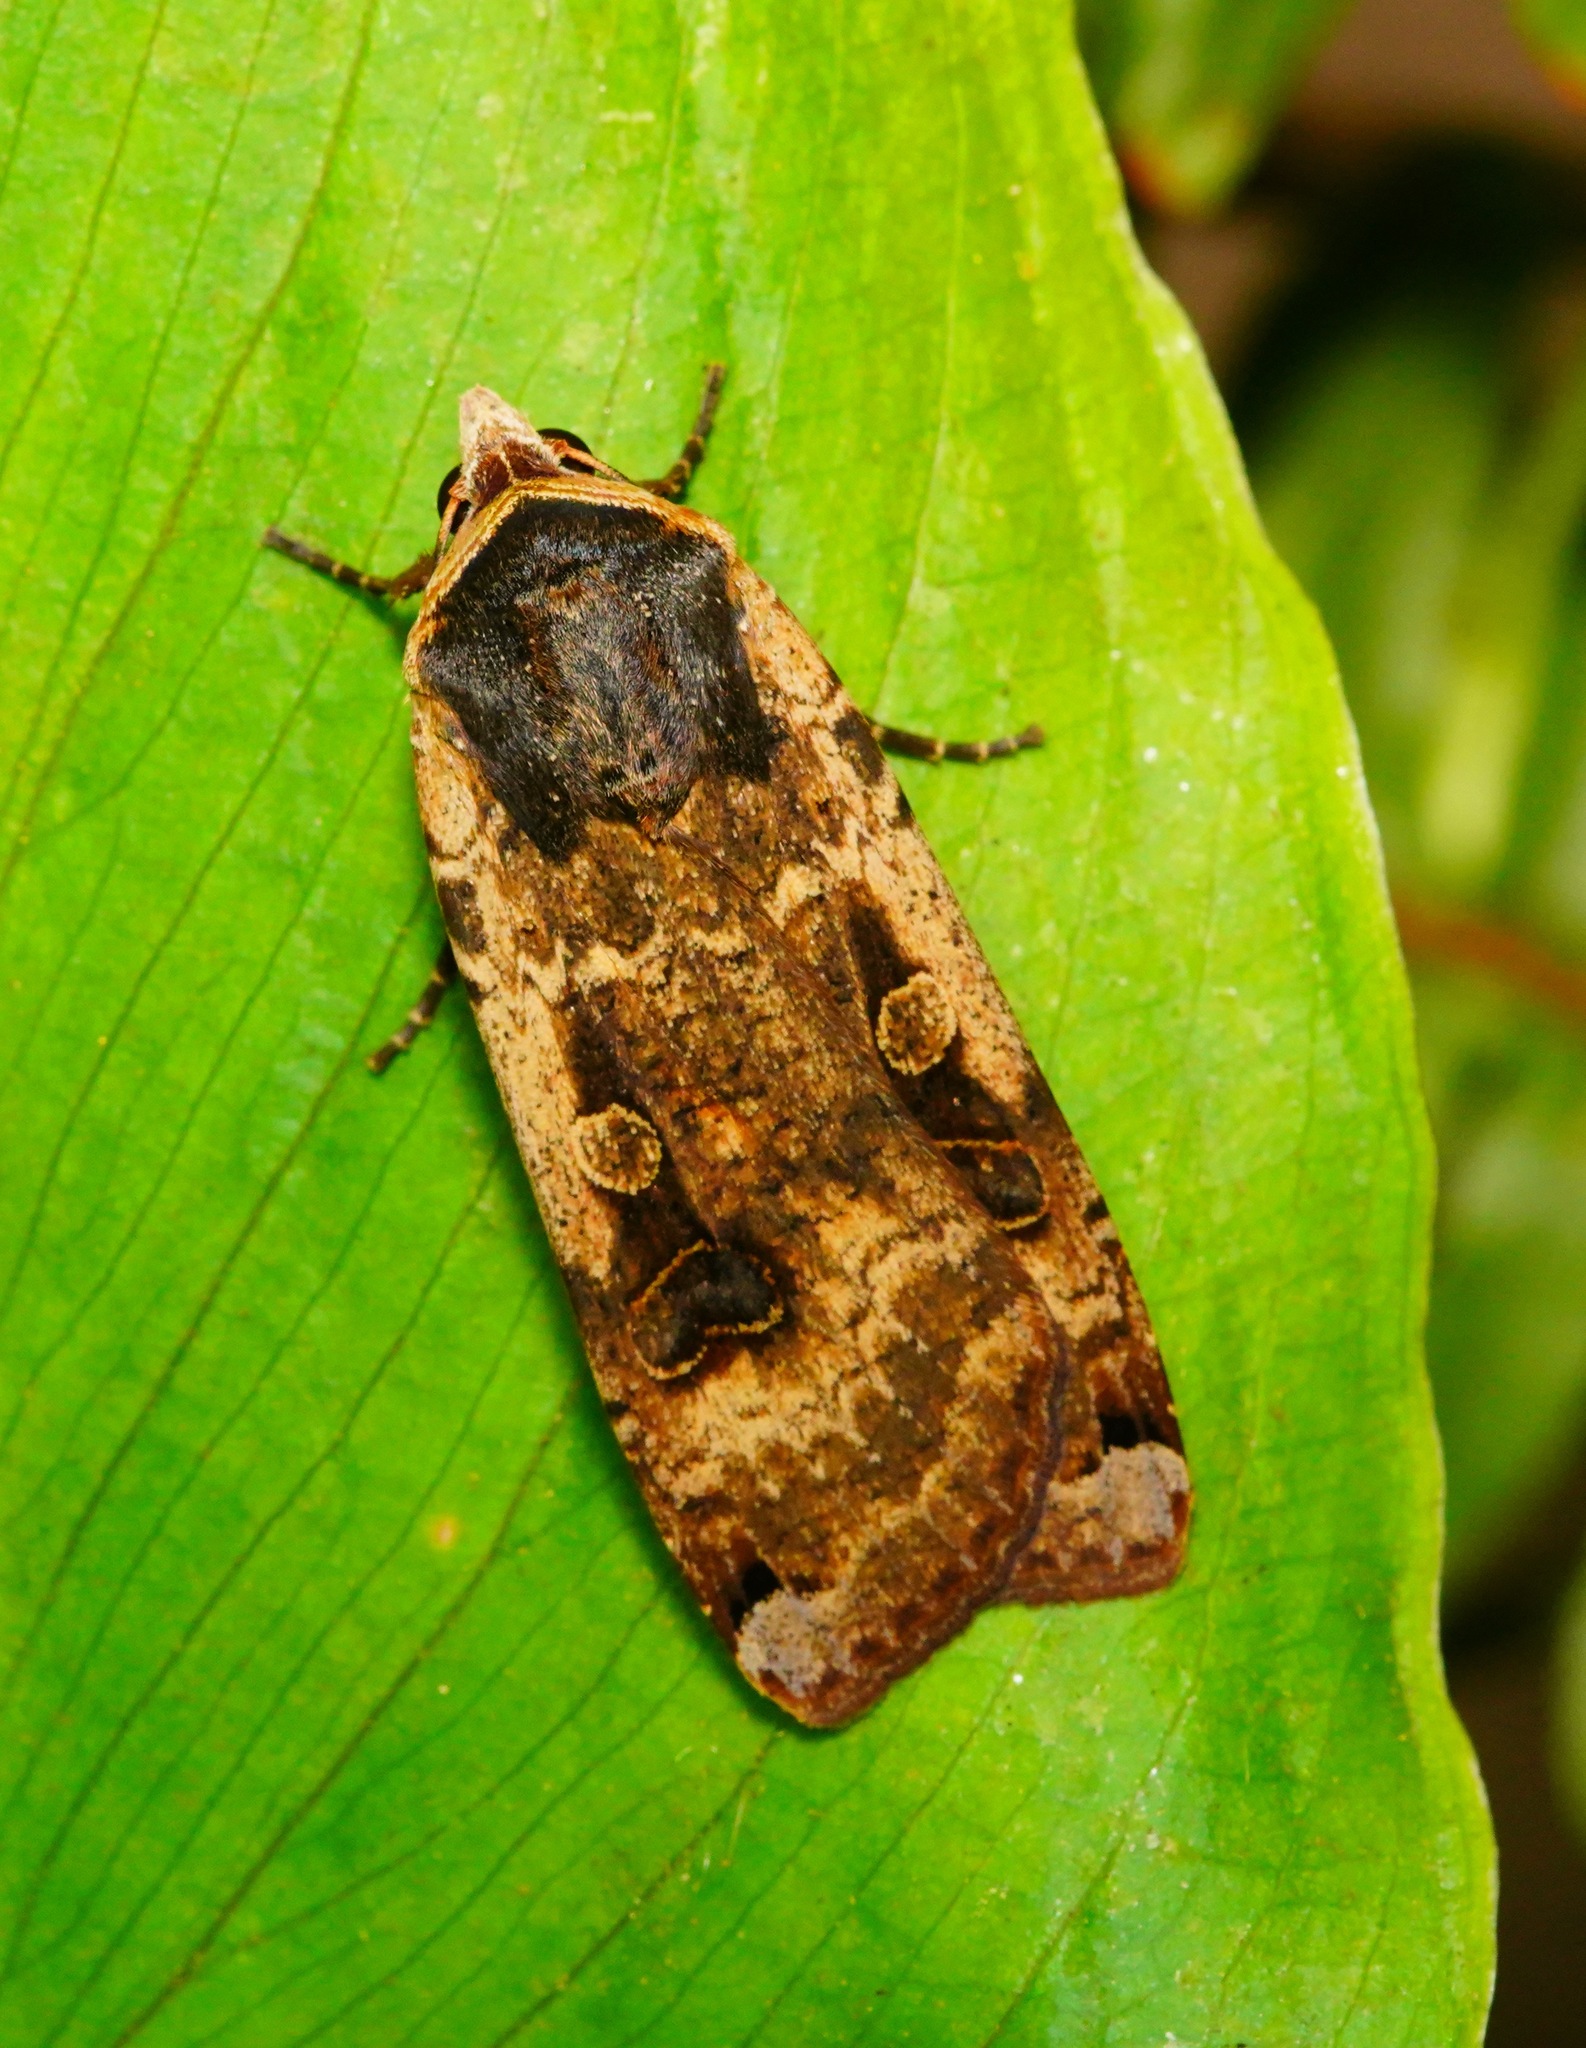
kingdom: Animalia
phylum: Arthropoda
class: Insecta
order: Lepidoptera
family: Noctuidae
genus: Noctua
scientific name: Noctua pronuba
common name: Large yellow underwing
